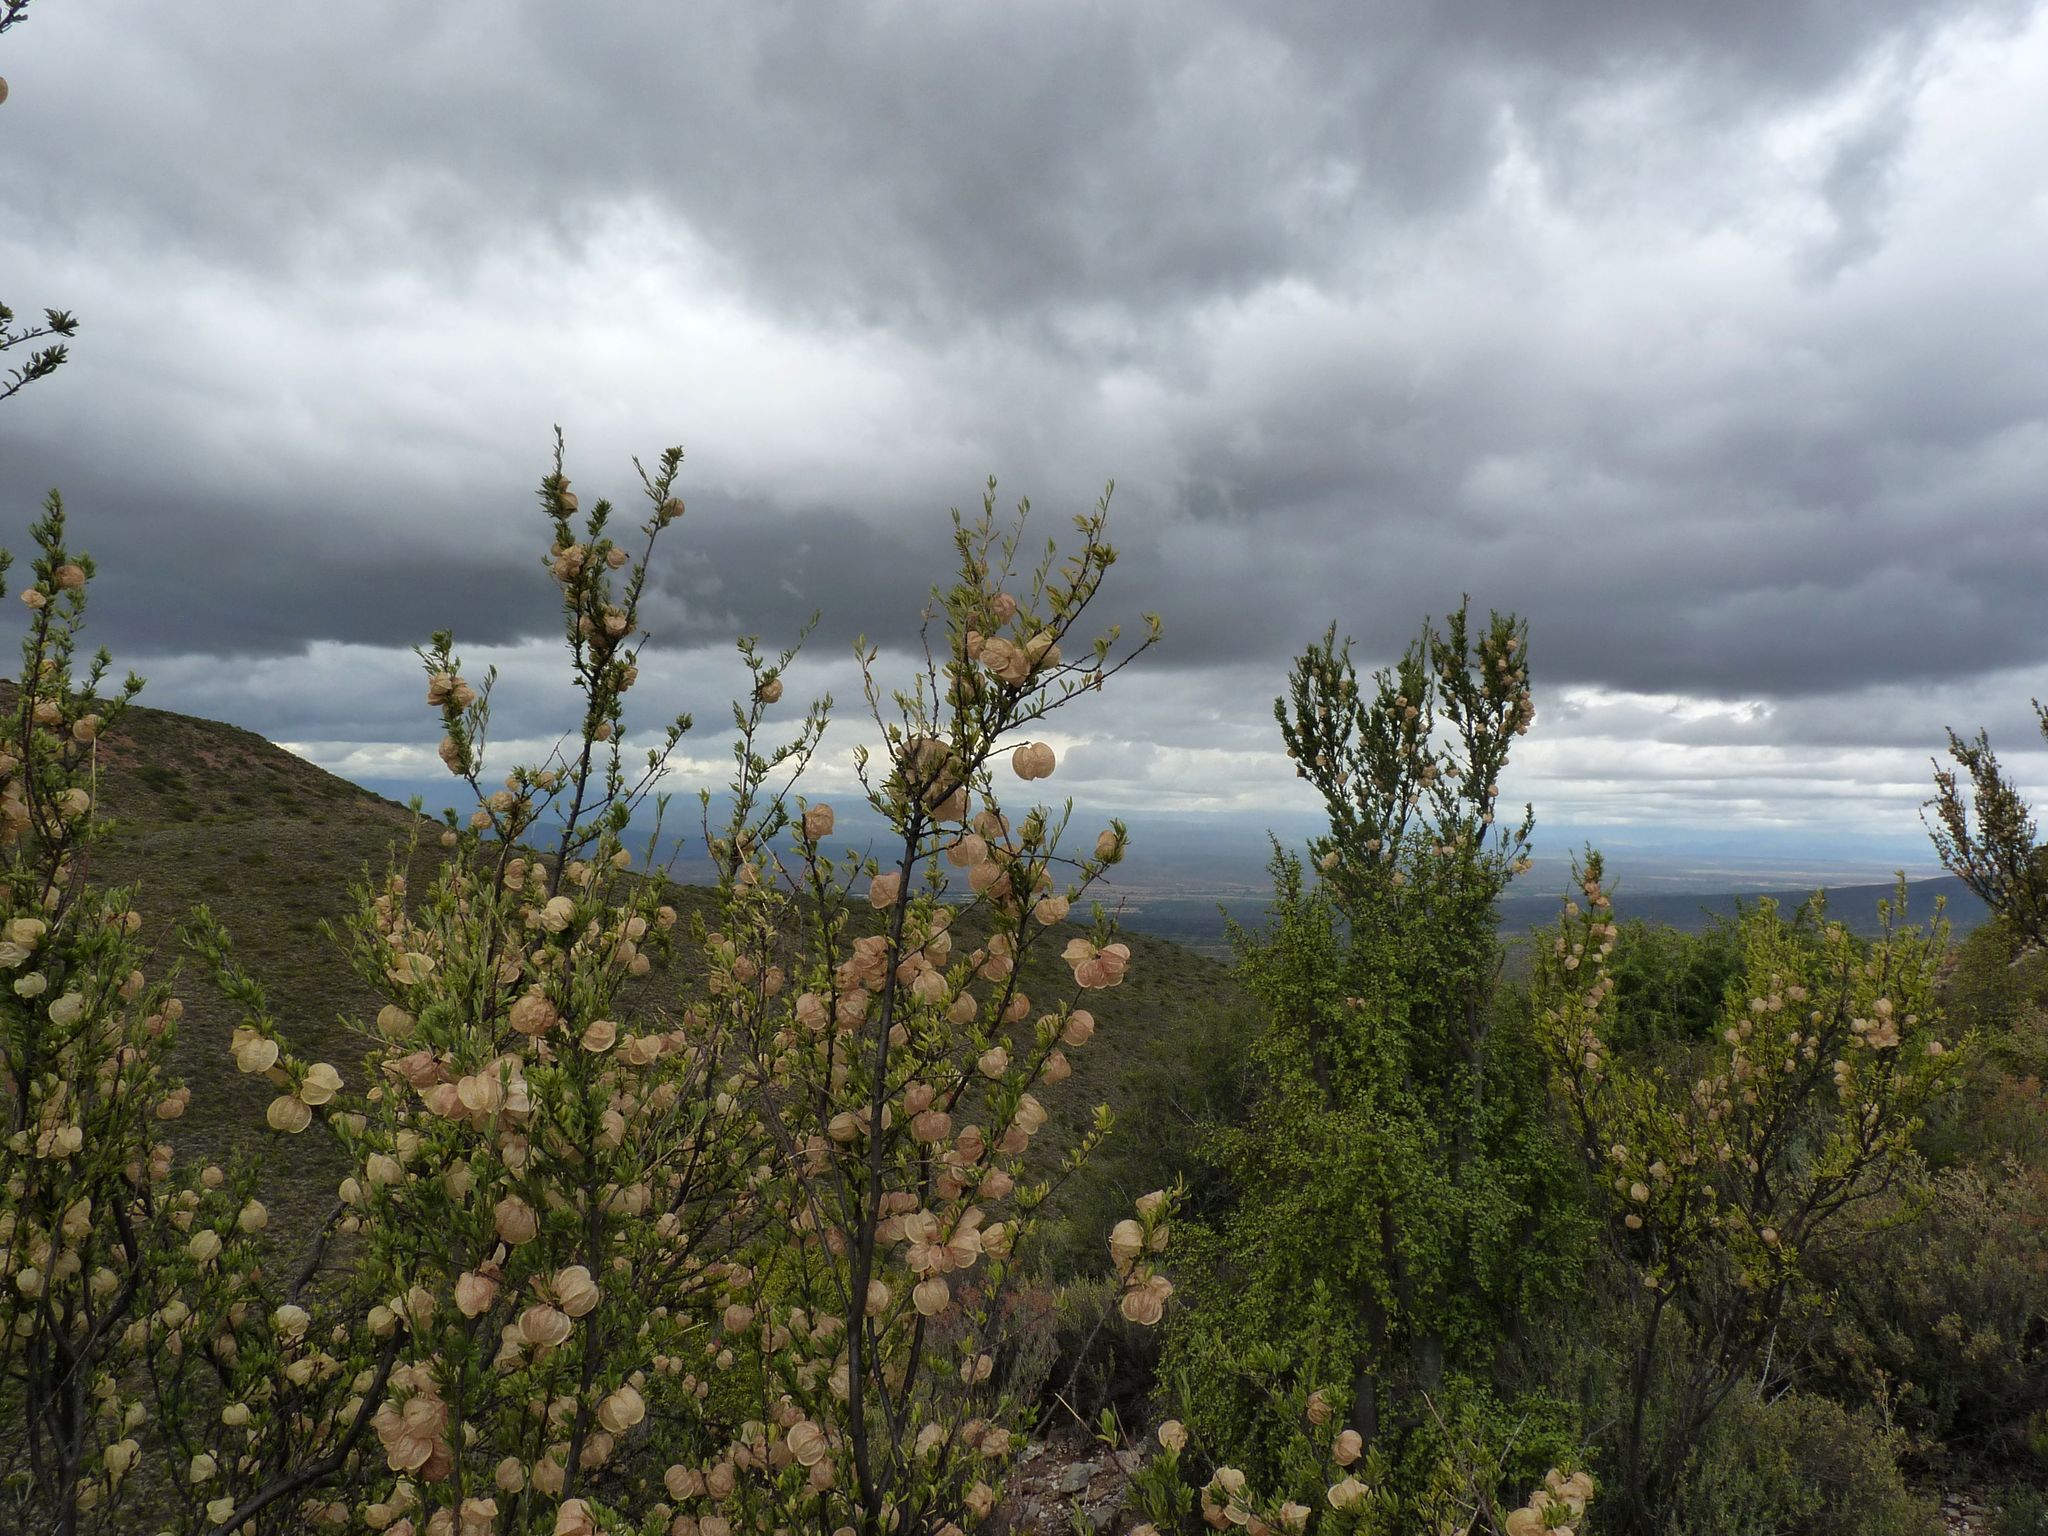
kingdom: Plantae
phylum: Tracheophyta
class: Magnoliopsida
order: Sapindales
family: Meliaceae
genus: Nymania
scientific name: Nymania capensis
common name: Chinese lantern tree
